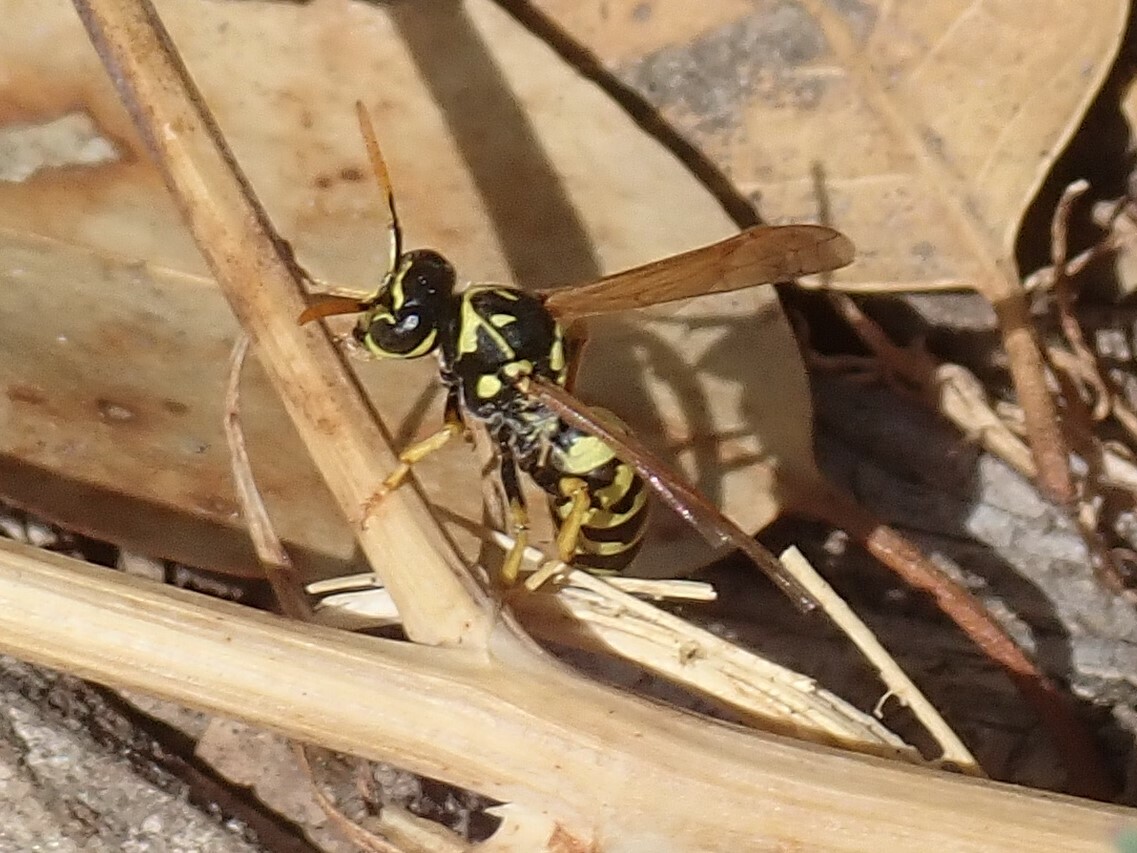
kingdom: Animalia
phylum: Arthropoda
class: Insecta
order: Hymenoptera
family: Eumenidae
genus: Polistes
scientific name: Polistes dominula
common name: Paper wasp
